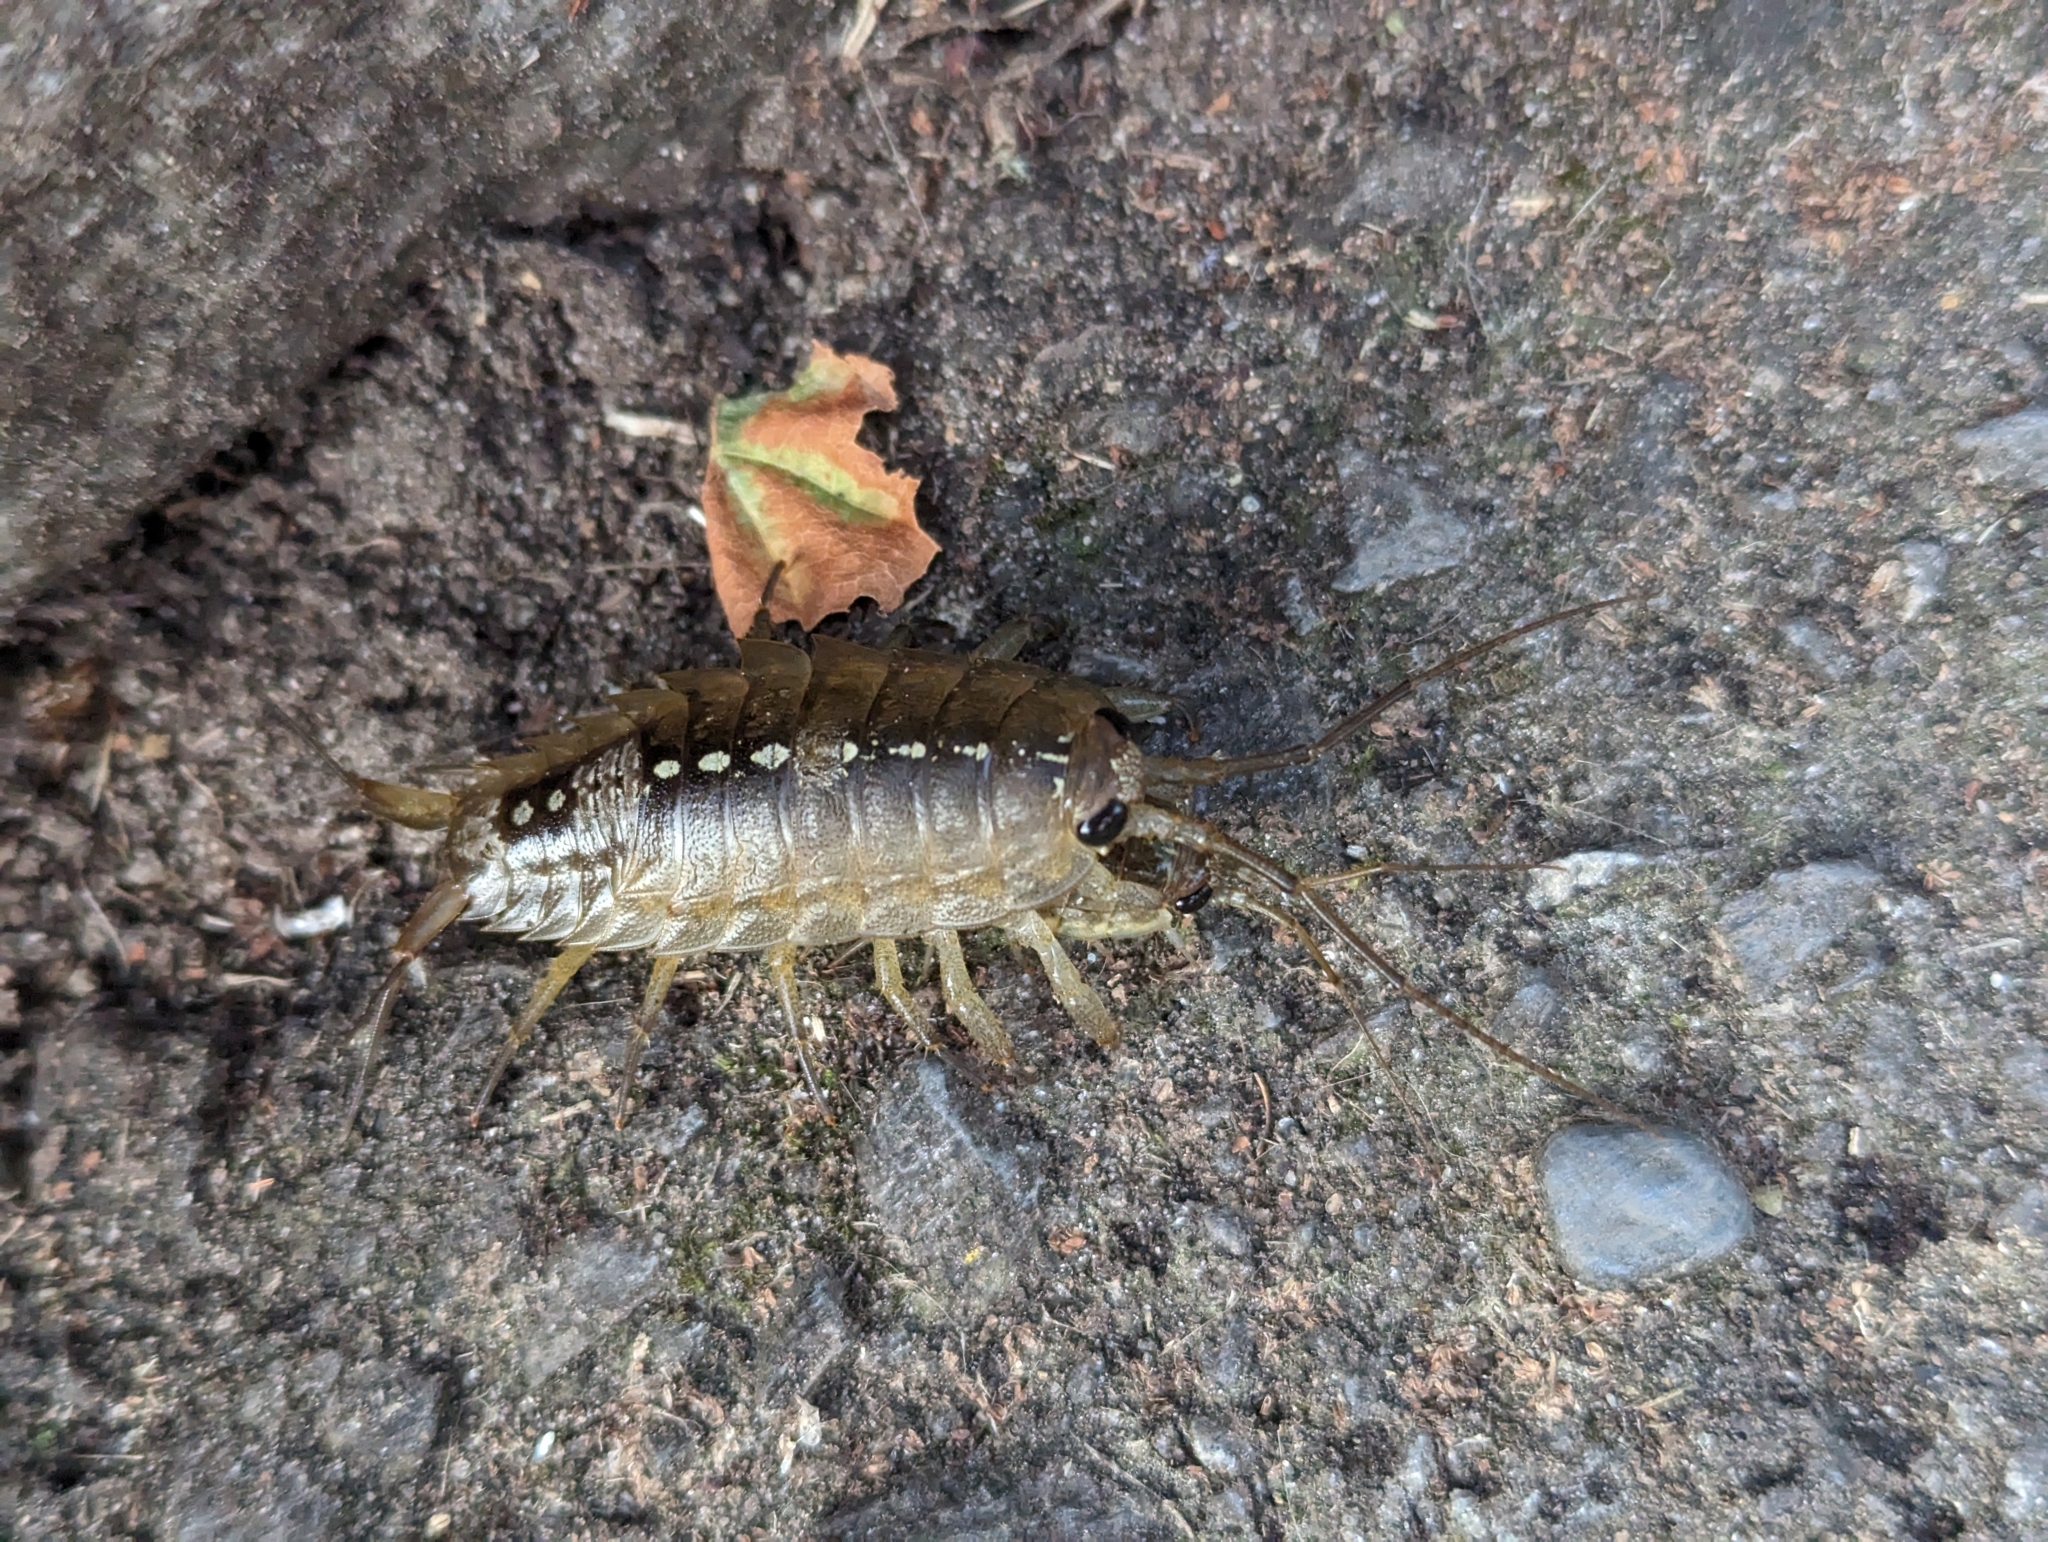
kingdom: Animalia
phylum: Arthropoda
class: Malacostraca
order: Isopoda
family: Ligiidae
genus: Ligia
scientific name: Ligia occidentalis
